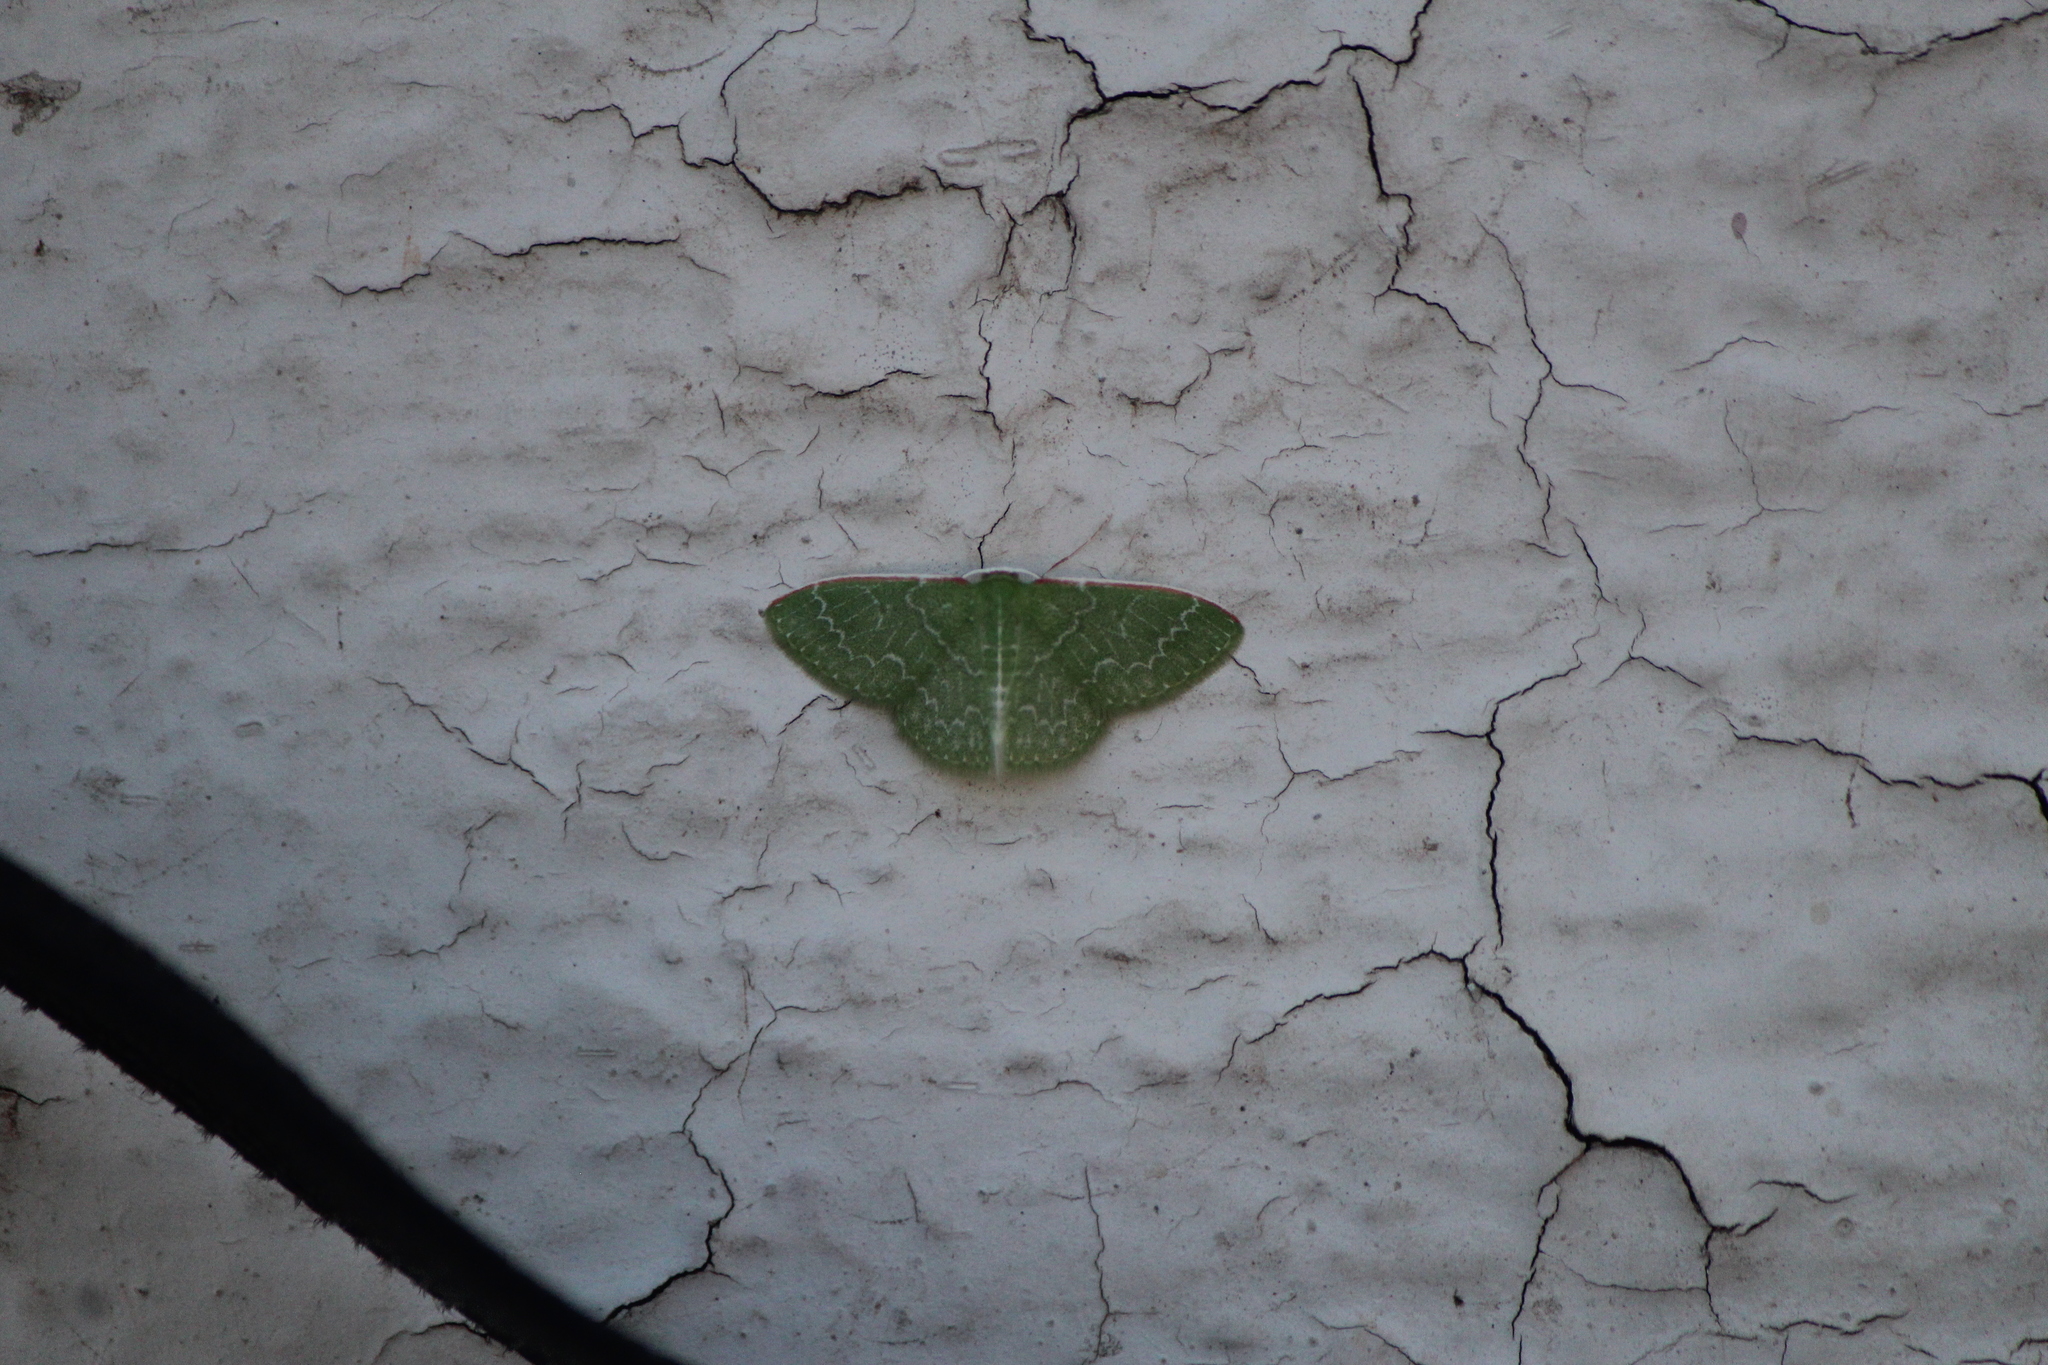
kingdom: Animalia
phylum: Arthropoda
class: Insecta
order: Lepidoptera
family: Geometridae
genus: Synchlora
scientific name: Synchlora frondaria
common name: Southern emerald
